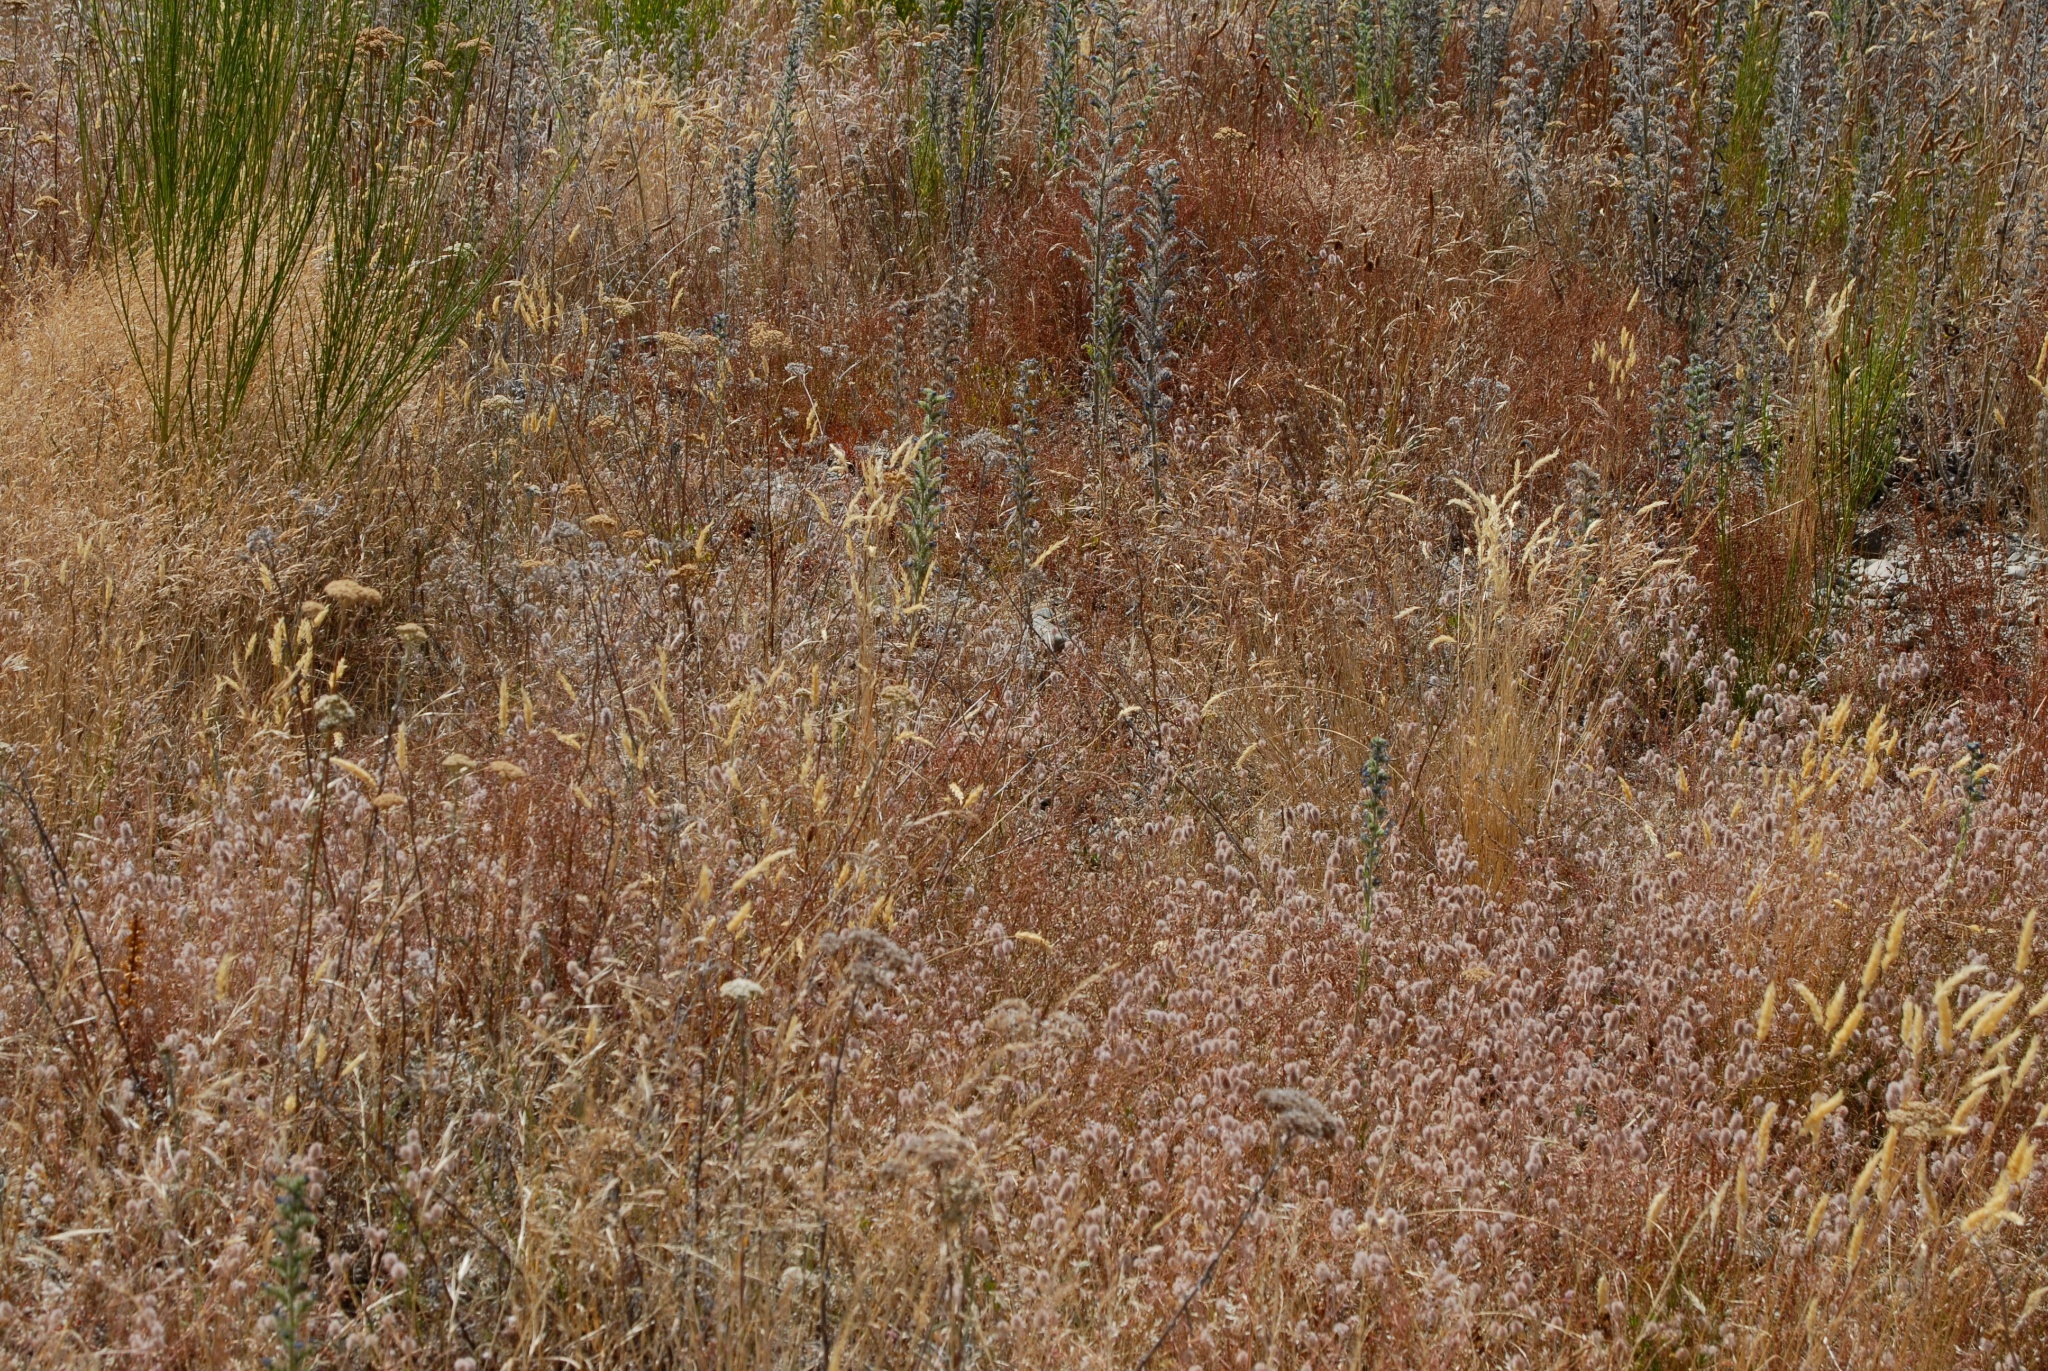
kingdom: Plantae
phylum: Tracheophyta
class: Magnoliopsida
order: Fabales
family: Fabaceae
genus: Cytisus
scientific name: Cytisus scoparius
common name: Scotch broom
